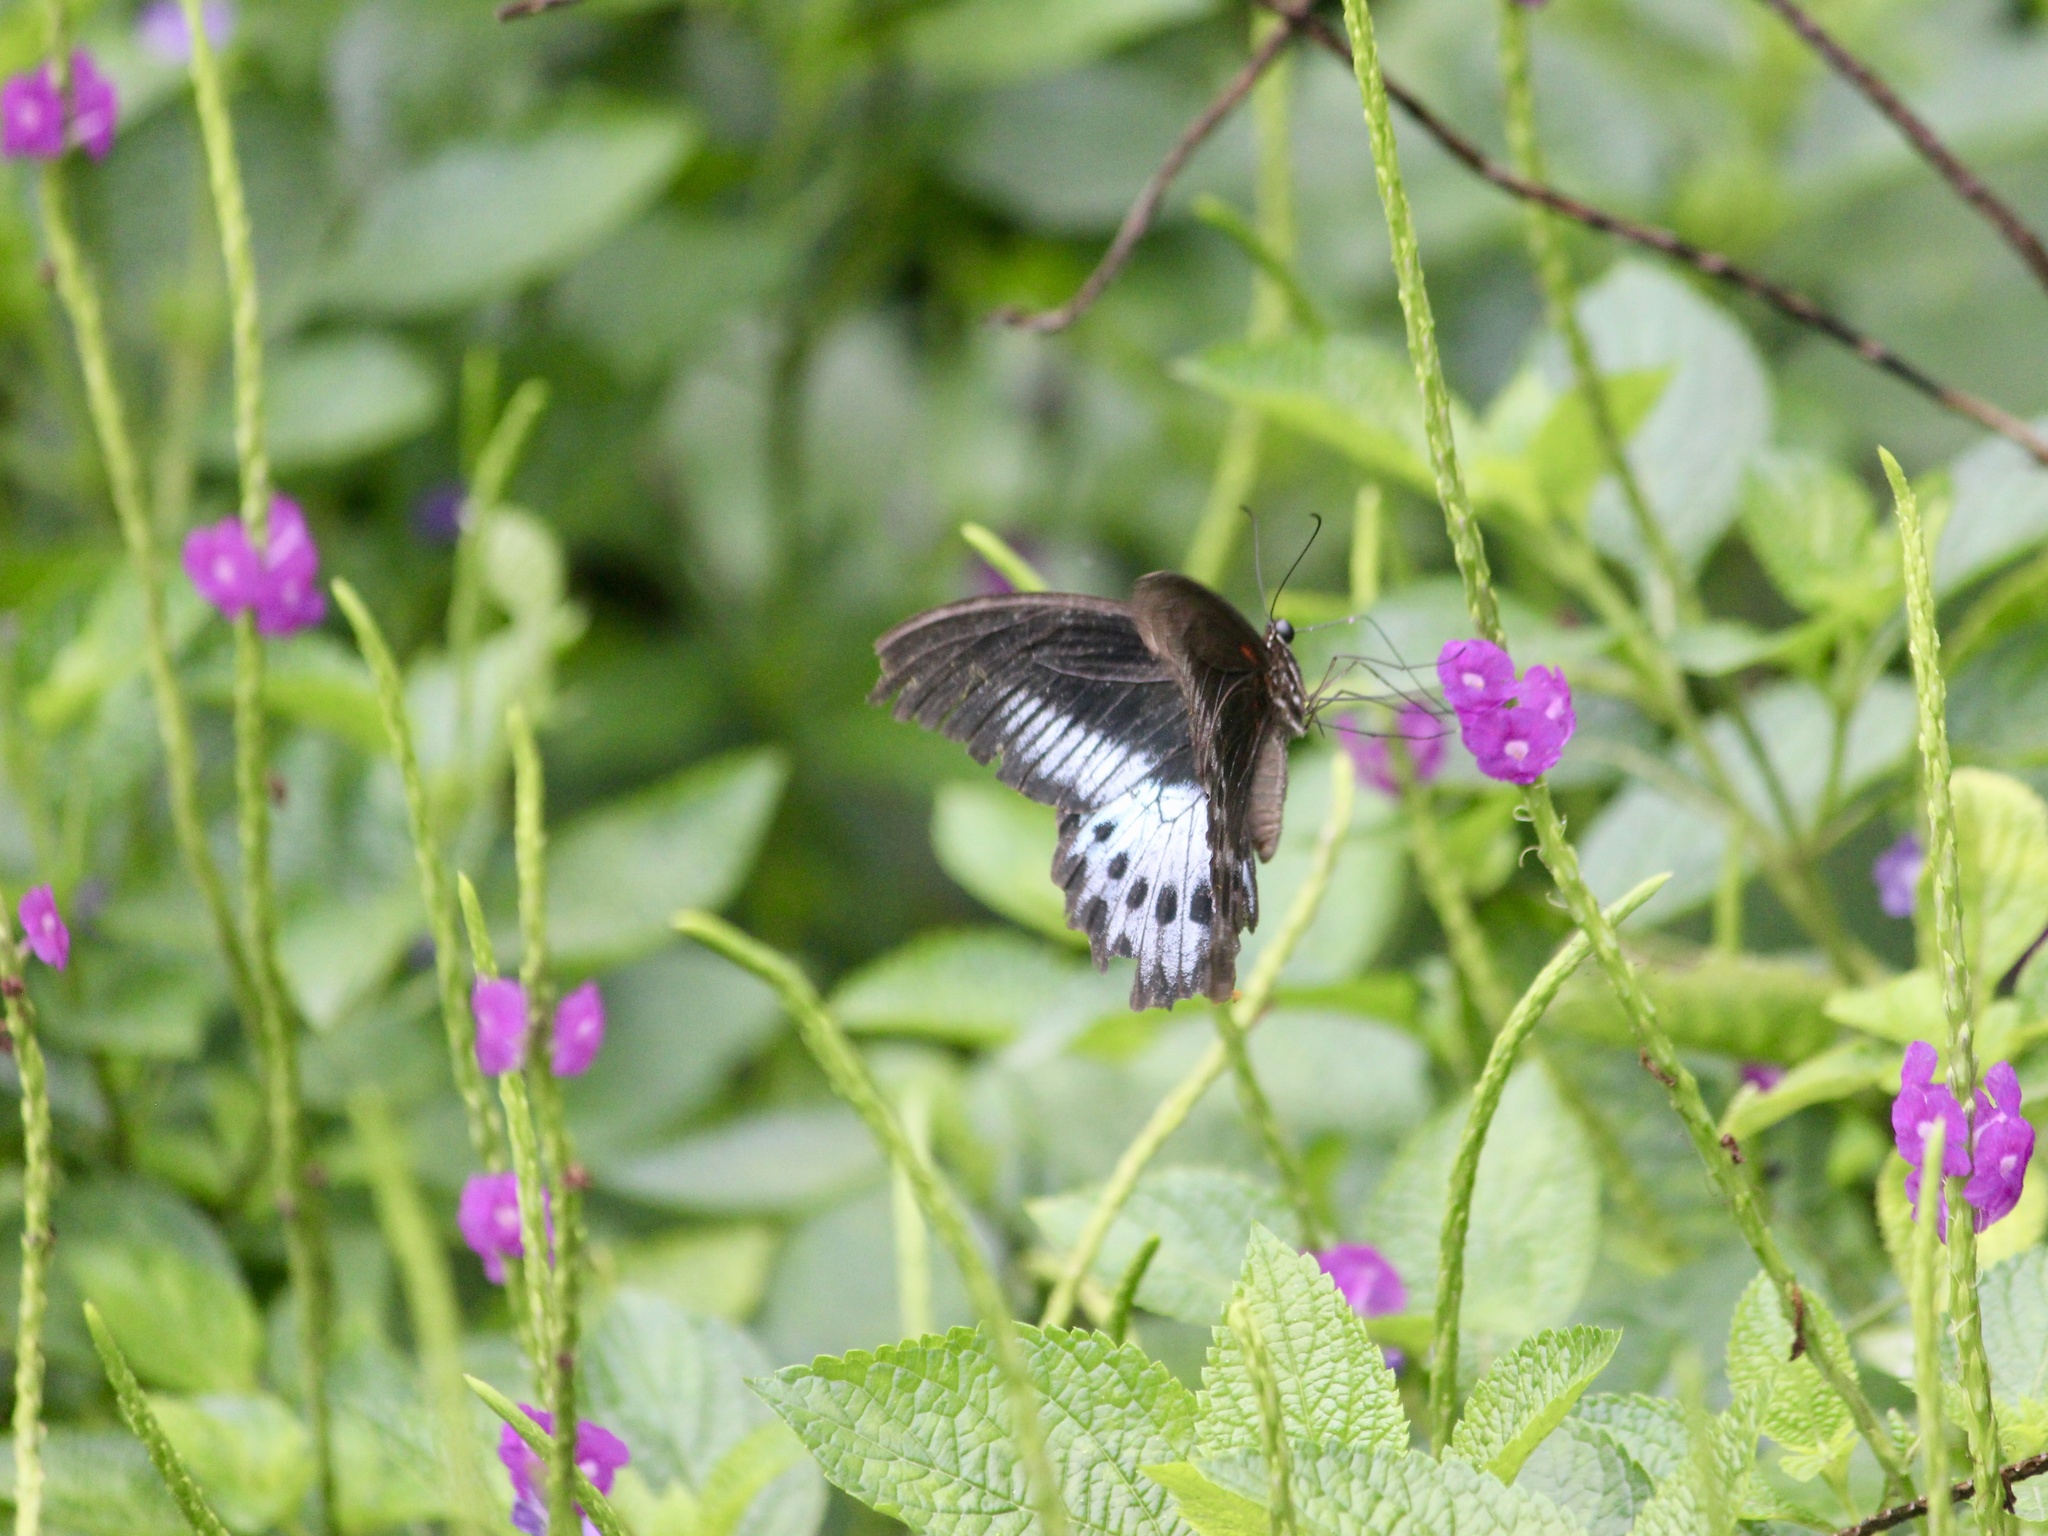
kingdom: Animalia
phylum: Arthropoda
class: Insecta
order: Lepidoptera
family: Papilionidae
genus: Papilio
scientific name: Papilio memnon
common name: Great mormon
